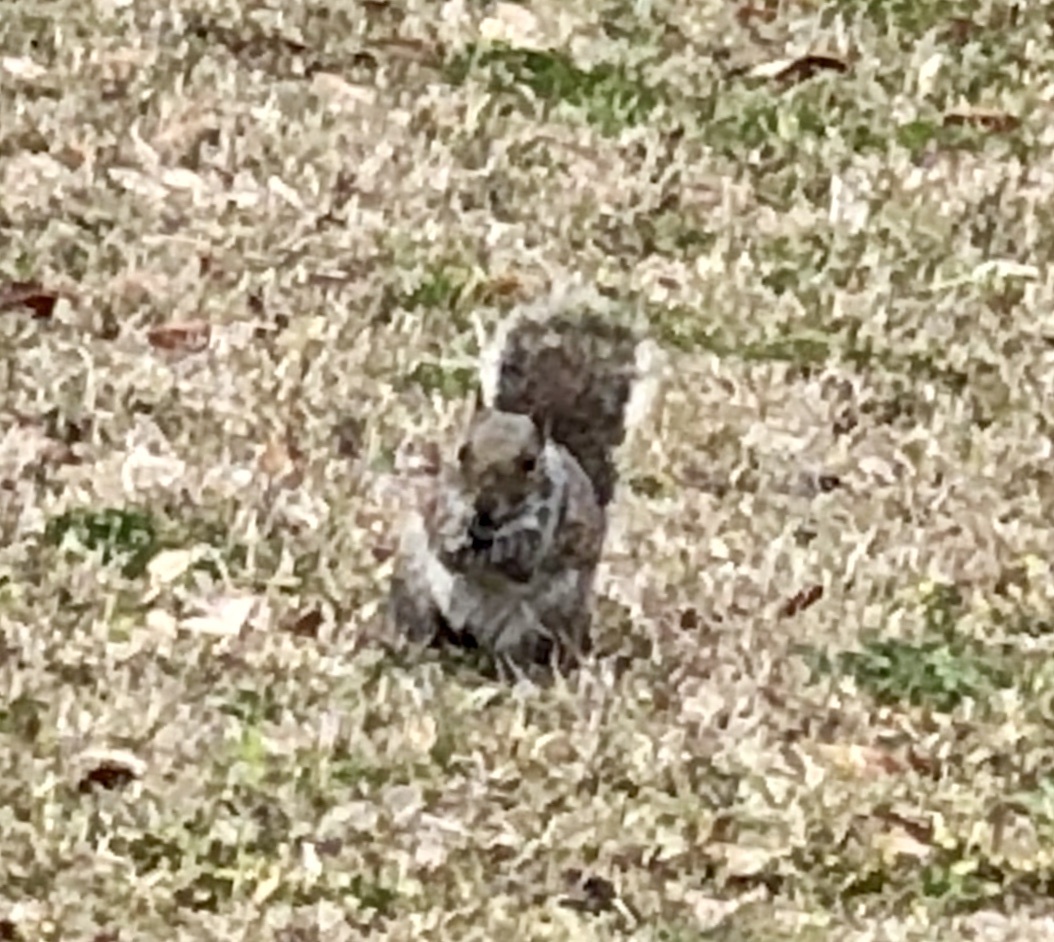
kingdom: Animalia
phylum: Chordata
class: Mammalia
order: Rodentia
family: Sciuridae
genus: Sciurus
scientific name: Sciurus carolinensis
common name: Eastern gray squirrel
